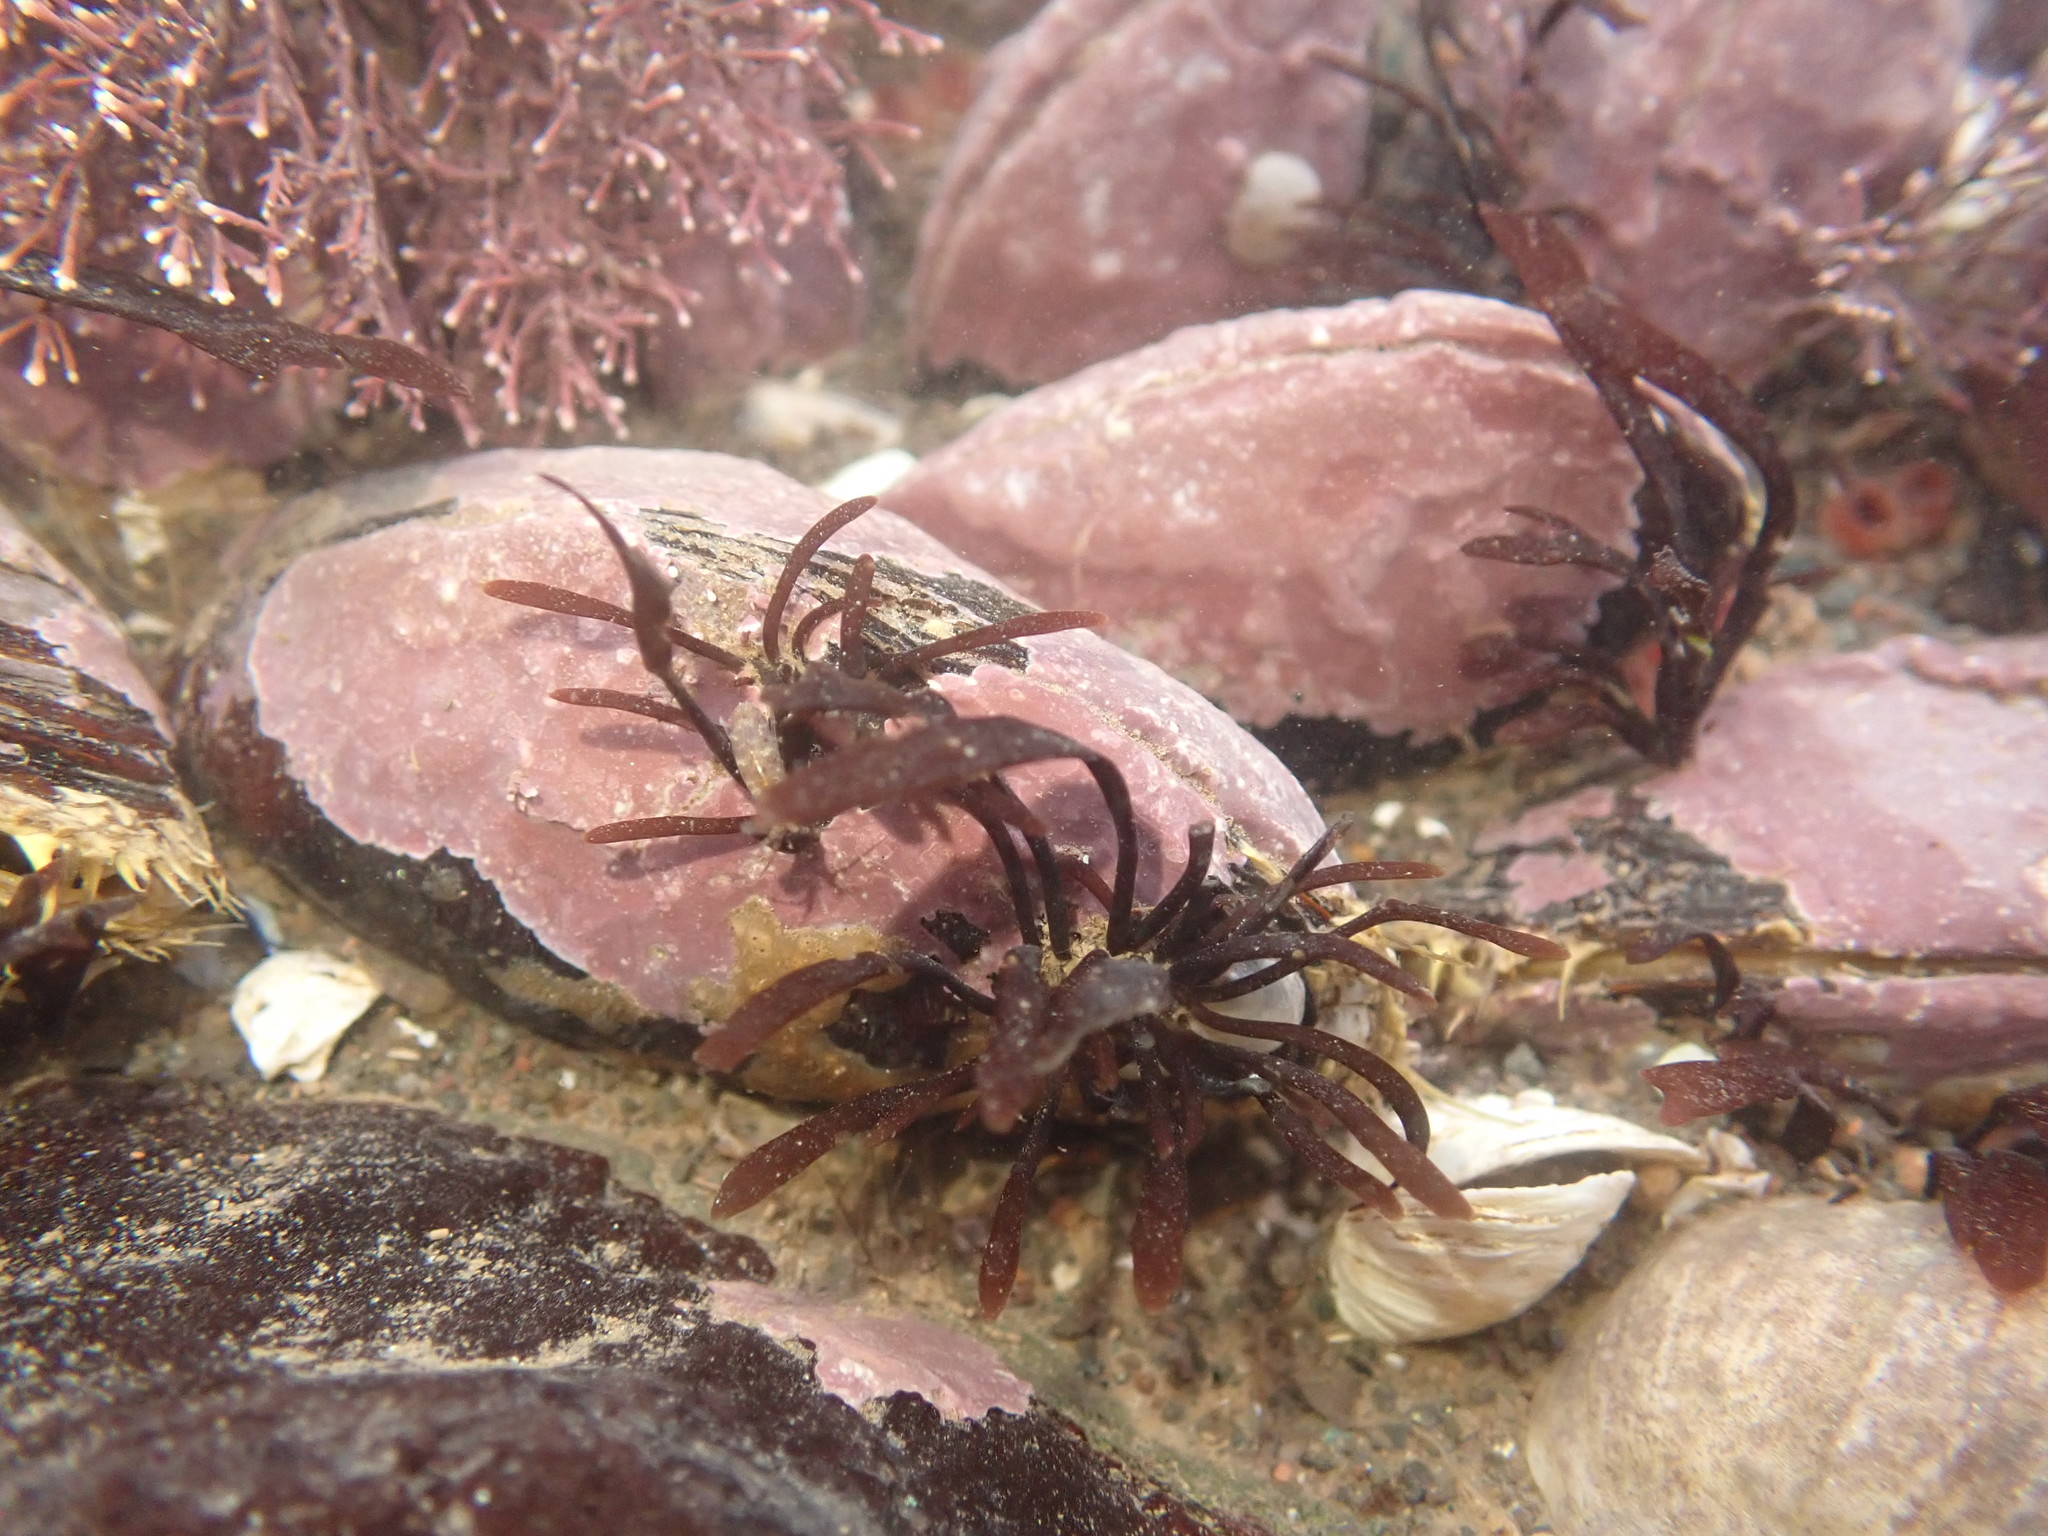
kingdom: Animalia
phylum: Mollusca
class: Bivalvia
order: Mytilida
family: Mytilidae
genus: Modiolus
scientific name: Modiolus modiolus
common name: Horse-mussel
